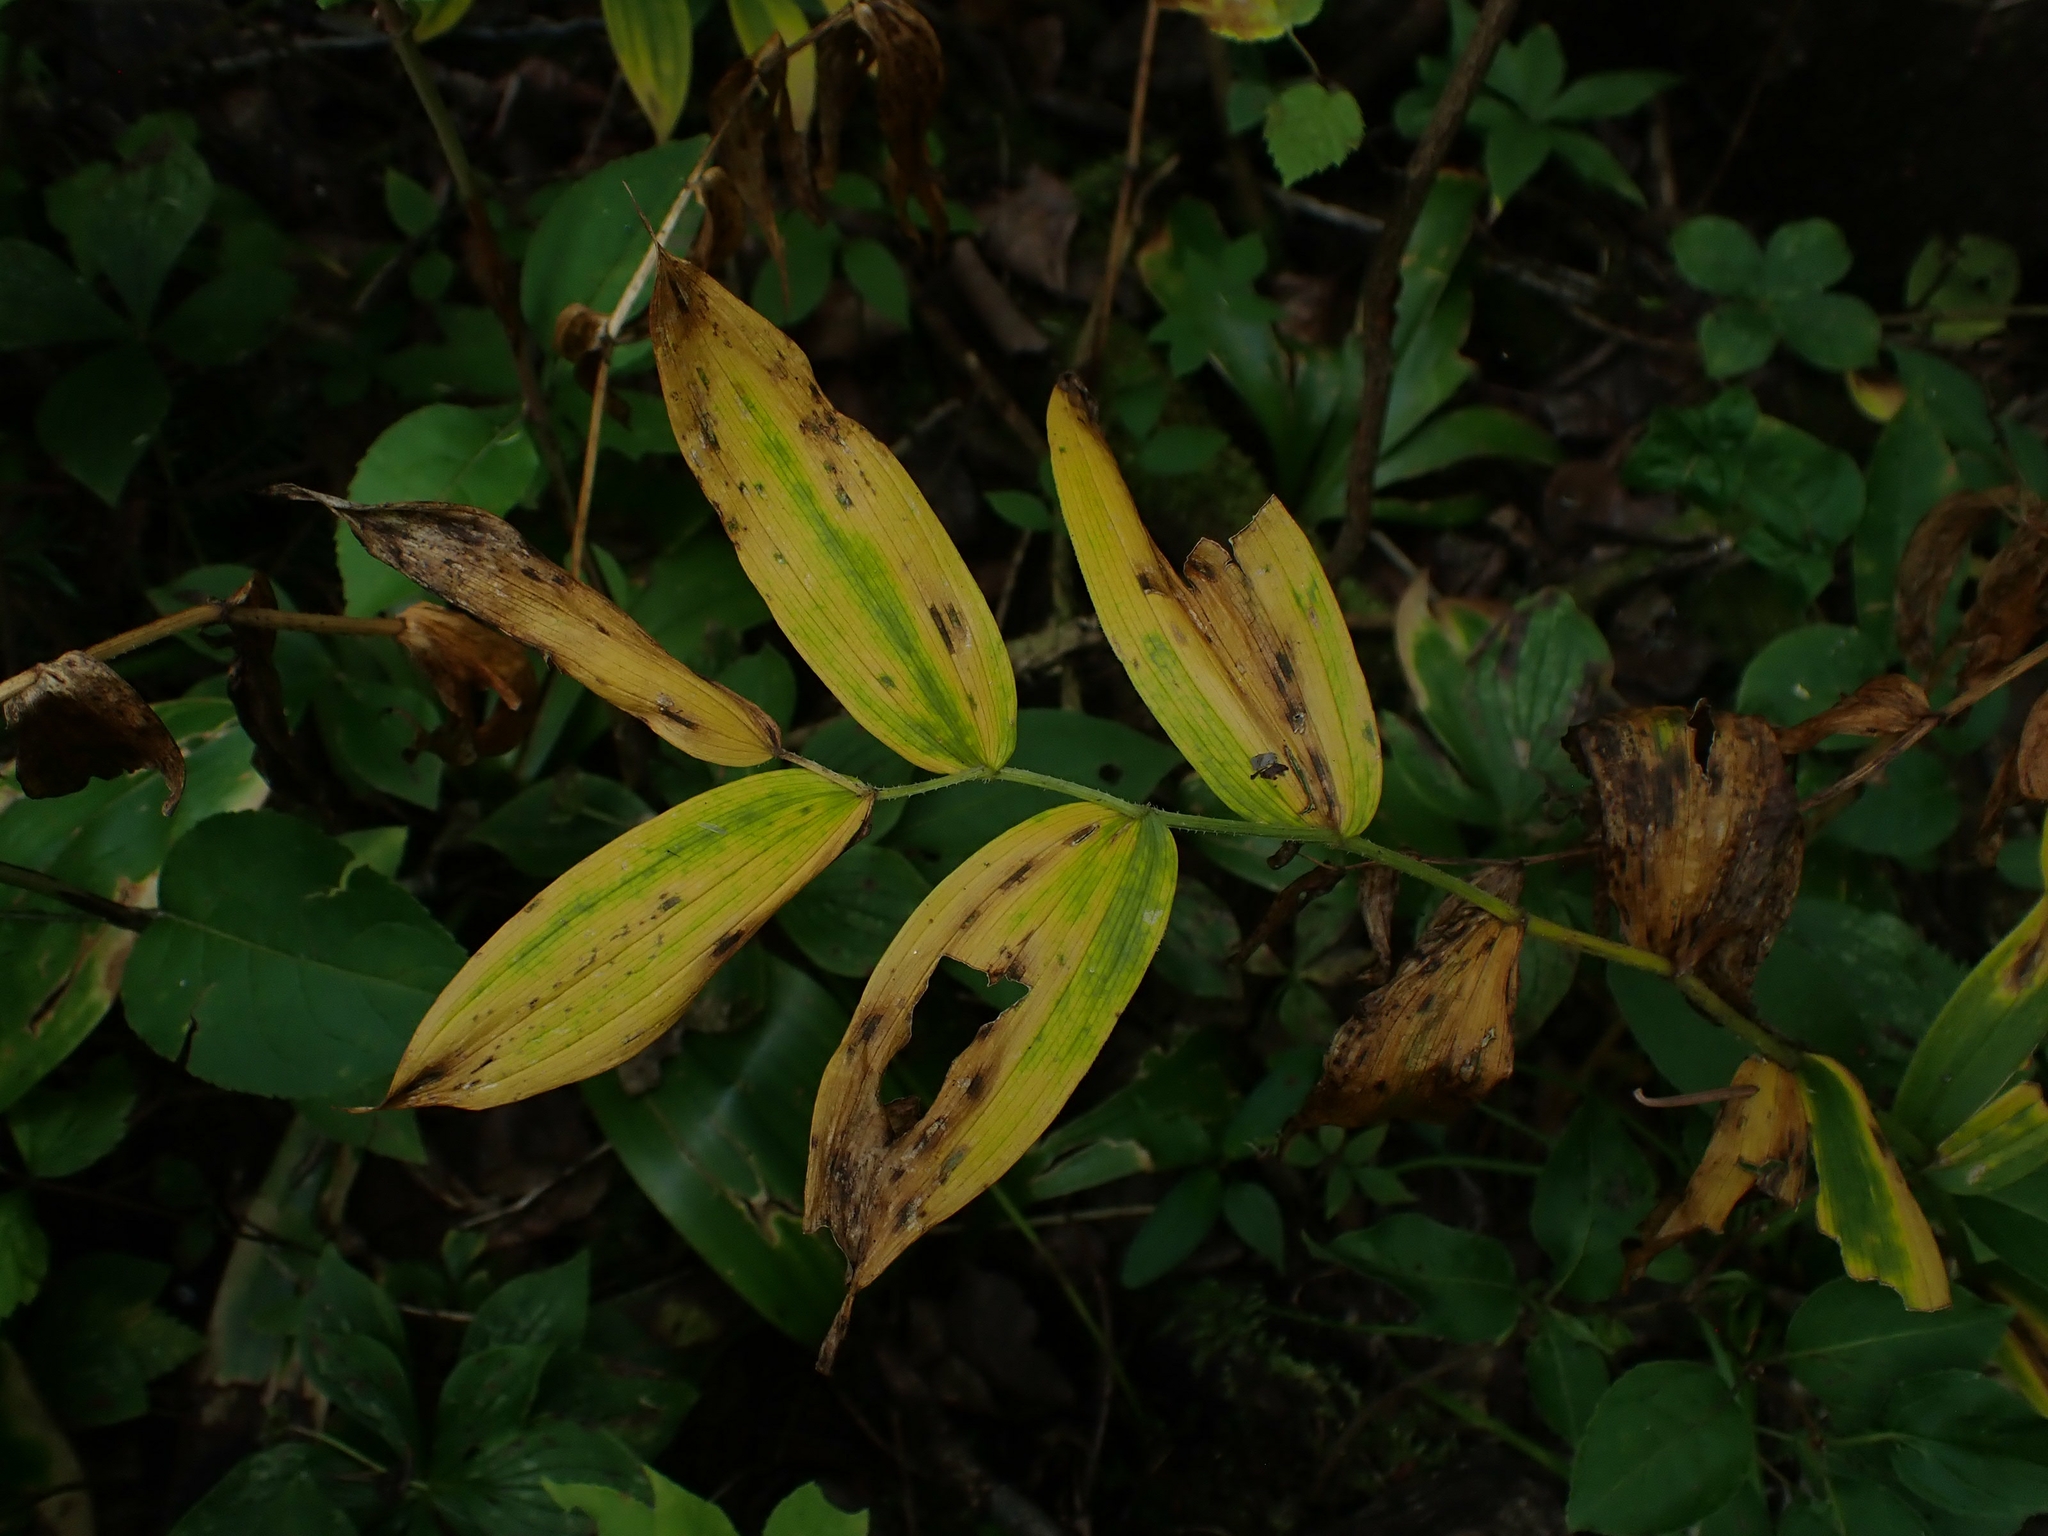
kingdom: Plantae
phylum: Tracheophyta
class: Liliopsida
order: Liliales
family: Liliaceae
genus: Streptopus
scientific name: Streptopus lanceolatus
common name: Rose mandarin
